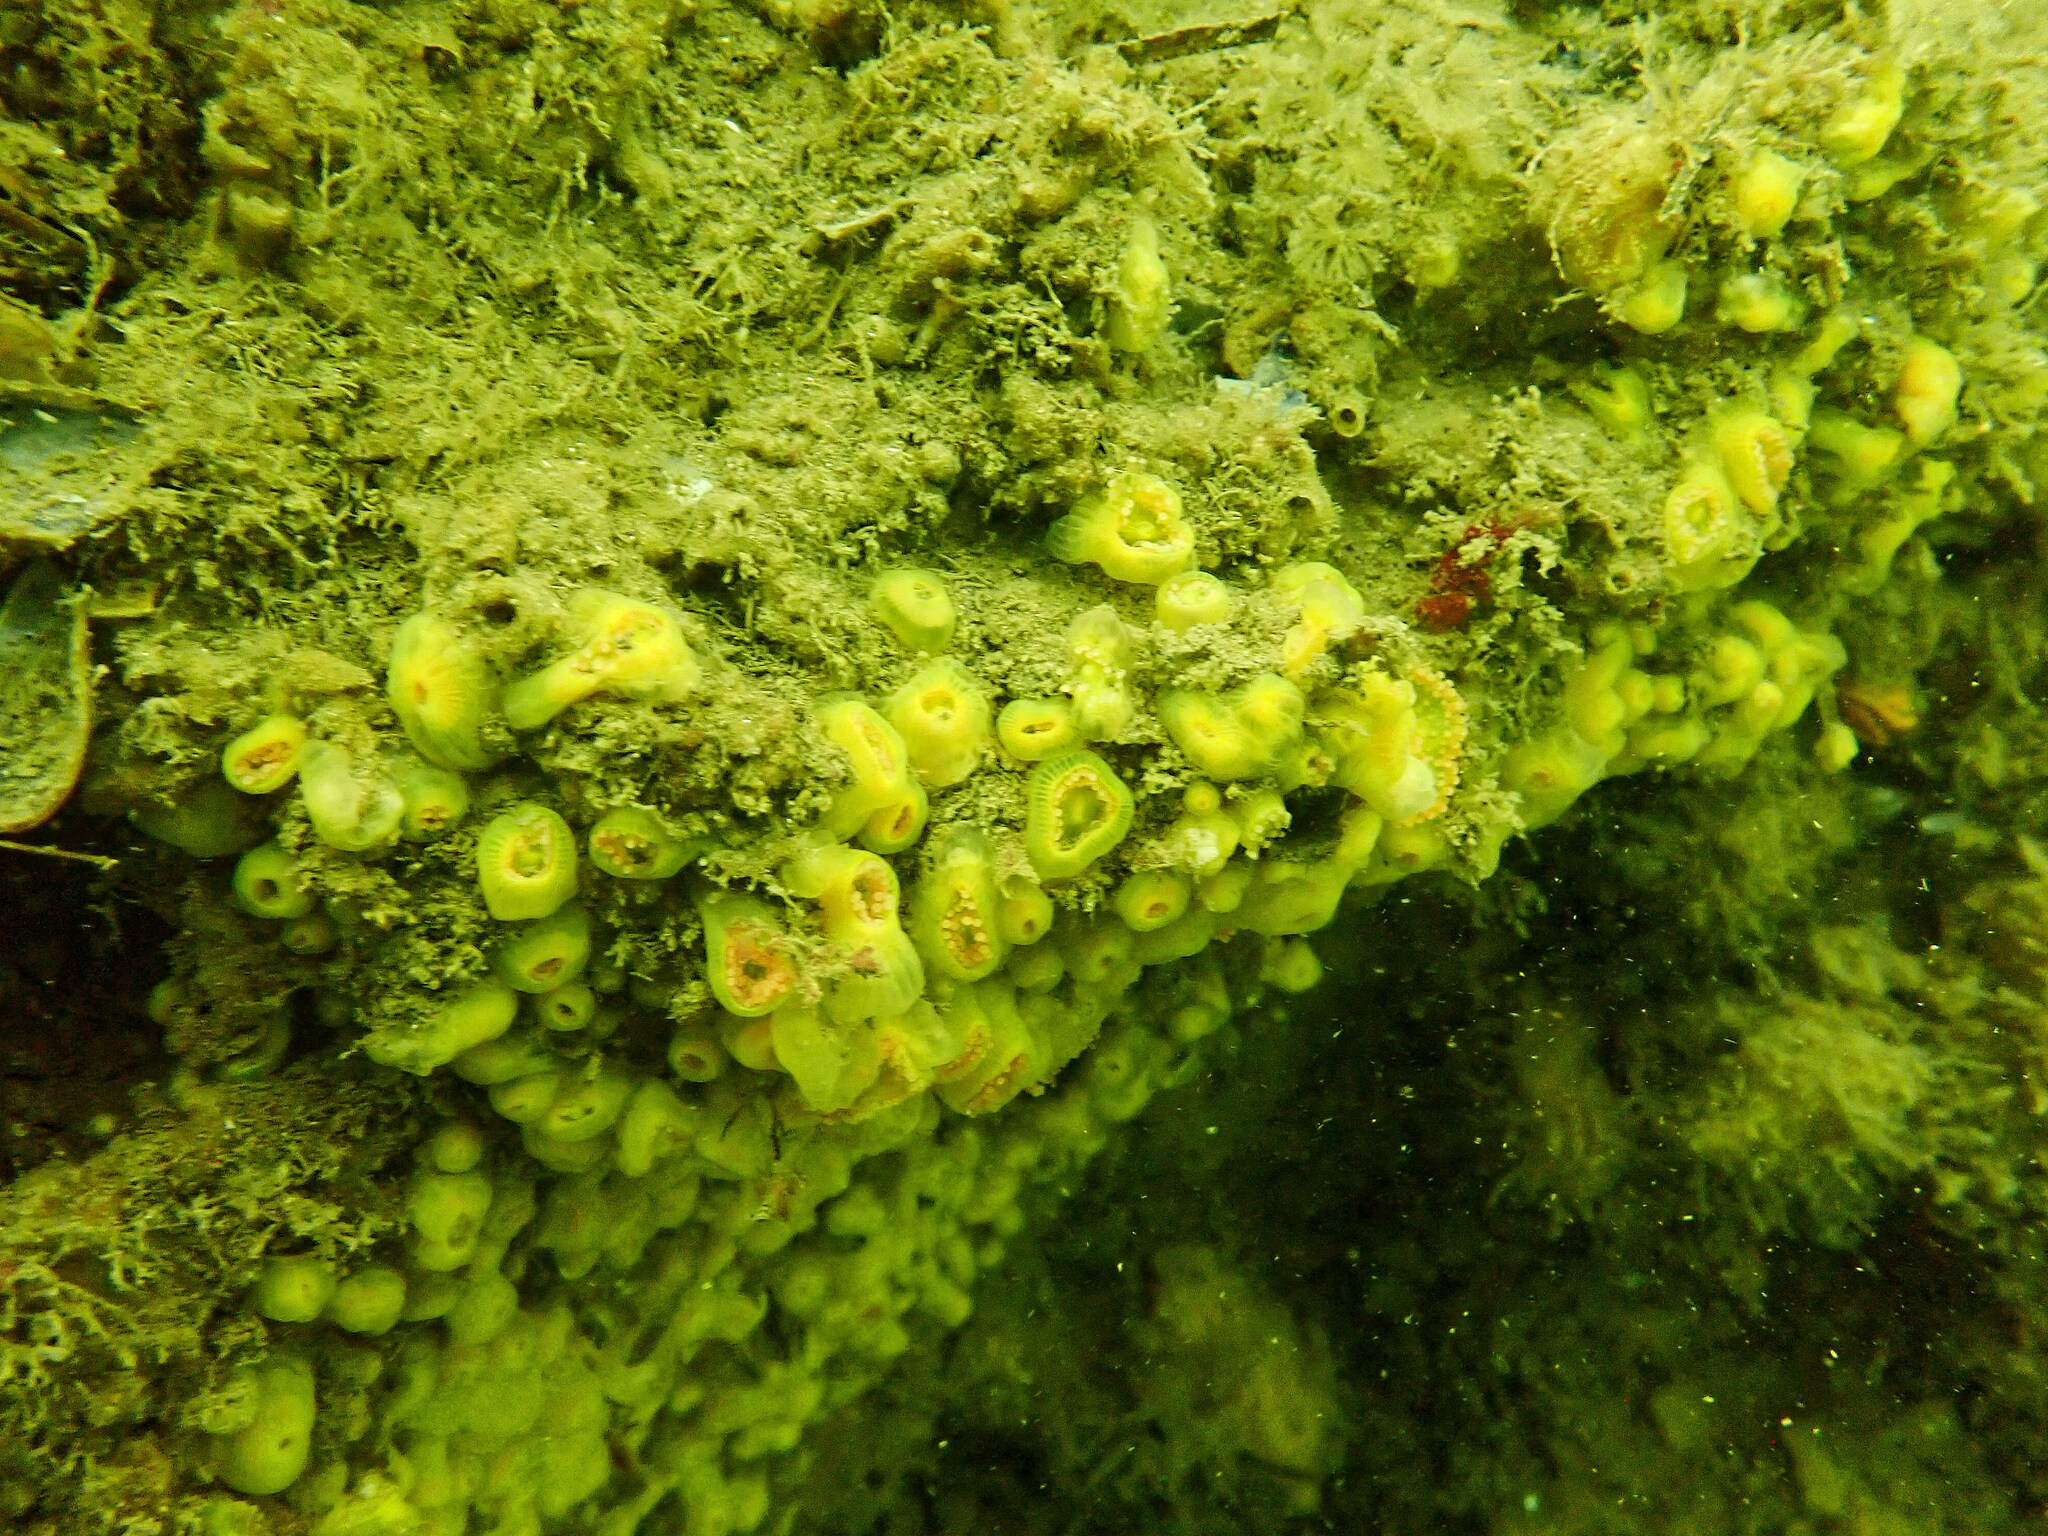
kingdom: Animalia
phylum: Cnidaria
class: Anthozoa
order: Corallimorpharia
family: Corallimorphidae
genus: Corynactis
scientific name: Corynactis viridis
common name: Jewel anemone
